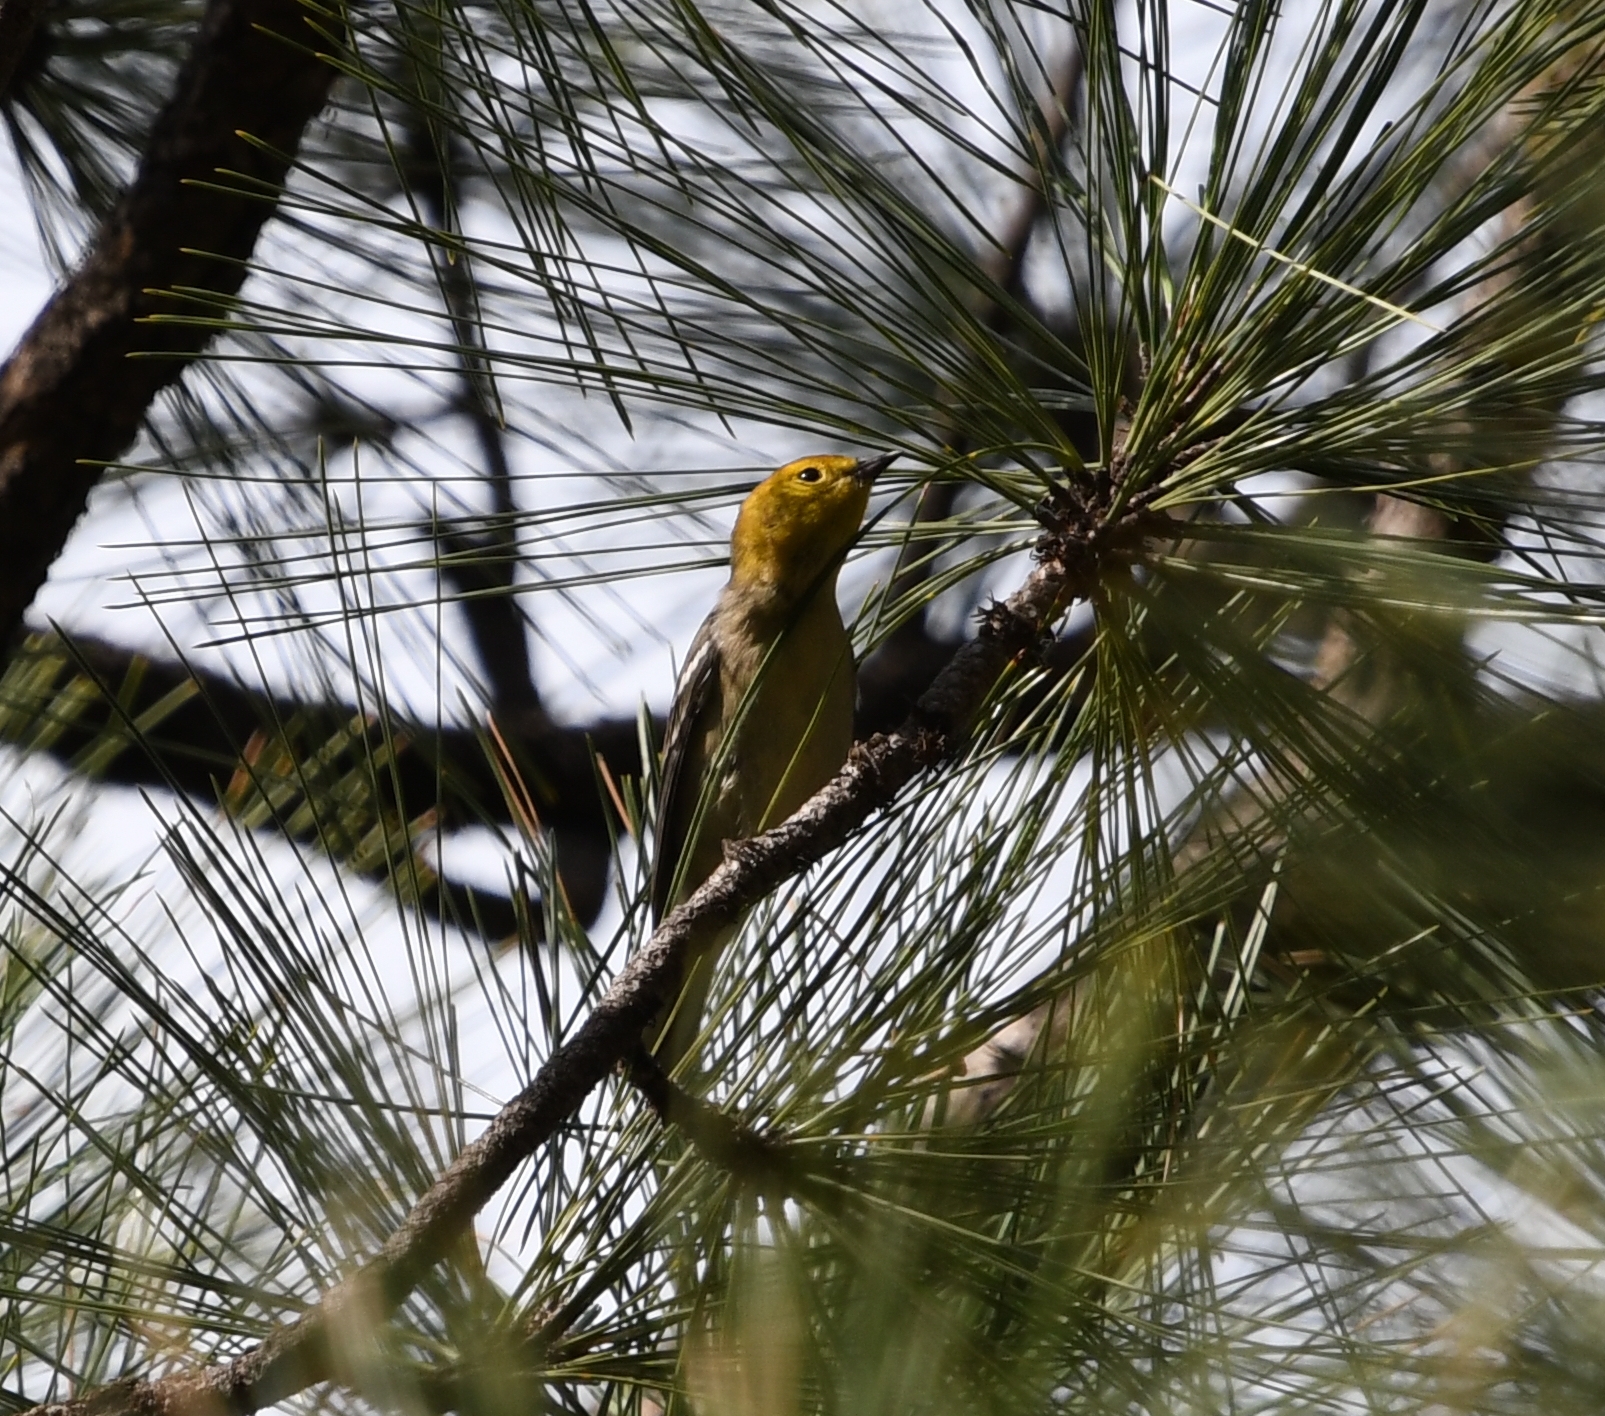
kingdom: Animalia
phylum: Chordata
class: Aves
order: Passeriformes
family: Parulidae
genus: Setophaga
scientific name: Setophaga occidentalis
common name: Hermit warbler
